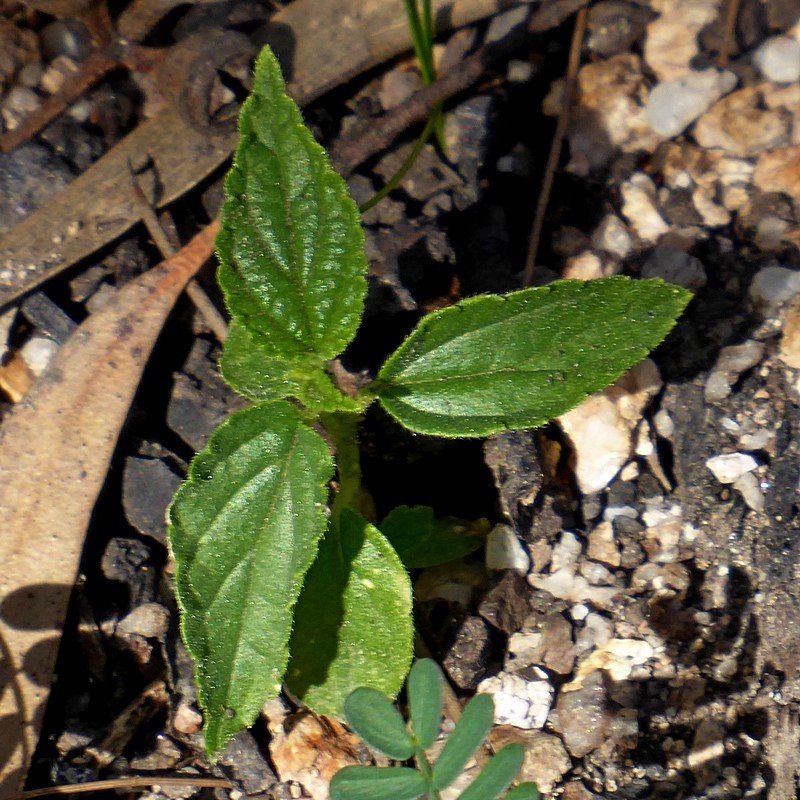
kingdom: Plantae
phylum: Tracheophyta
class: Magnoliopsida
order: Rosales
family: Cannabaceae
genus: Trema
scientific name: Trema tomentosum
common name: Peach-leaf-poisonbush
